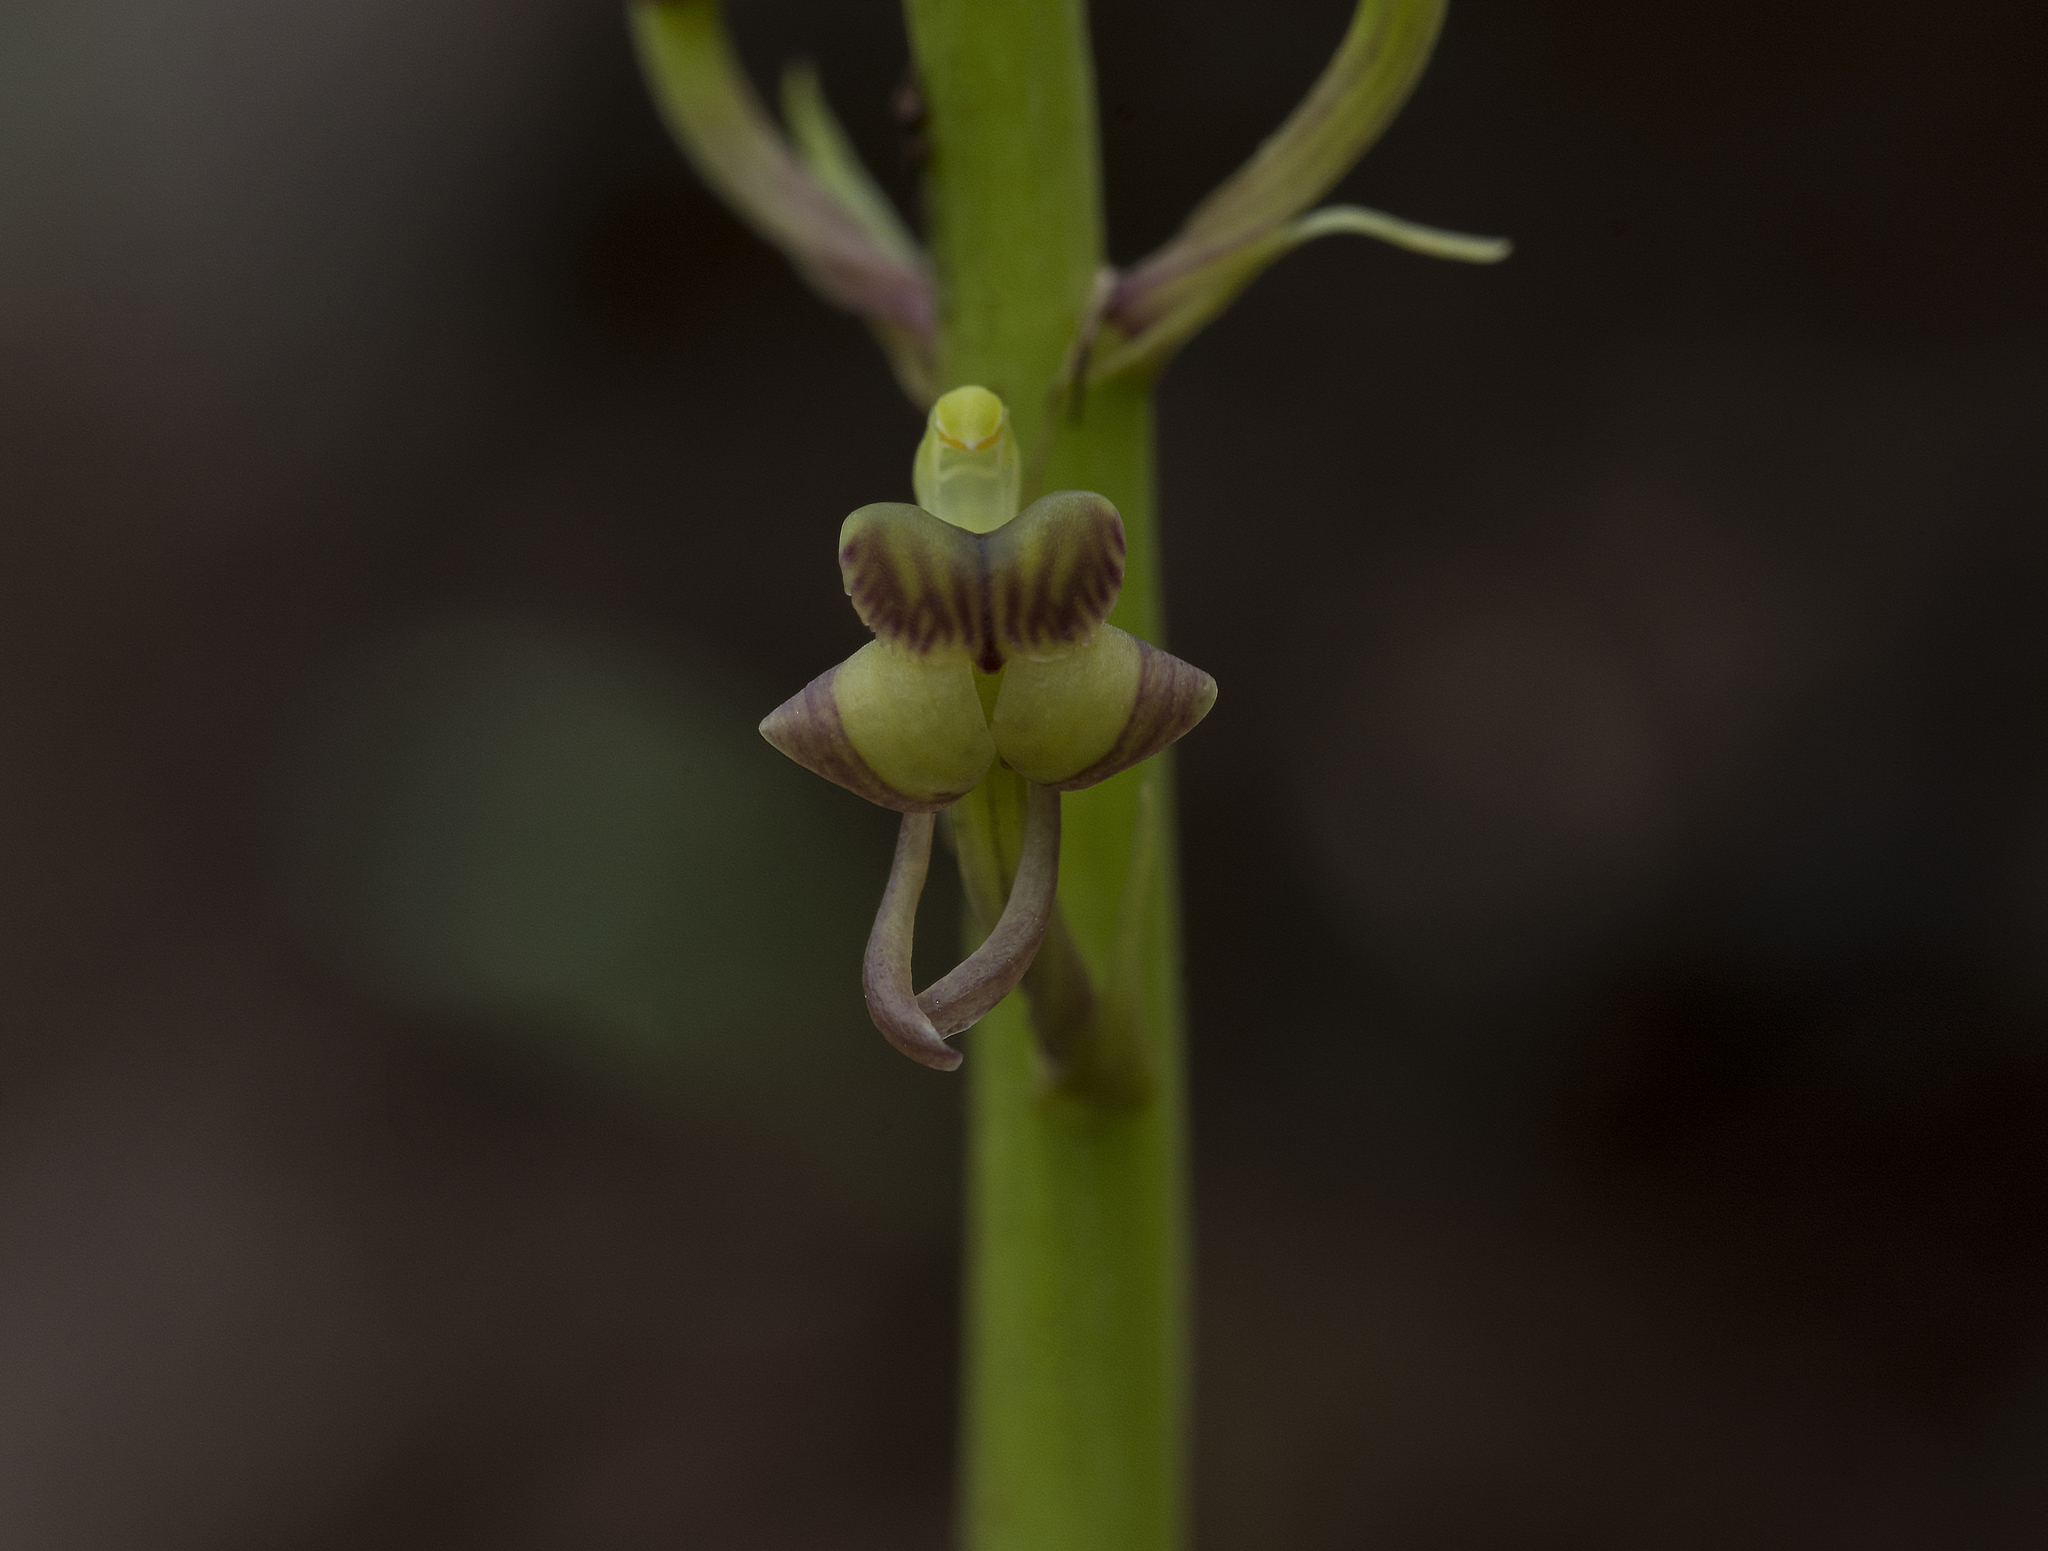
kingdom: Plantae
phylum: Tracheophyta
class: Liliopsida
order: Asparagales
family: Orchidaceae
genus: Liparis
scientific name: Liparis odorata
